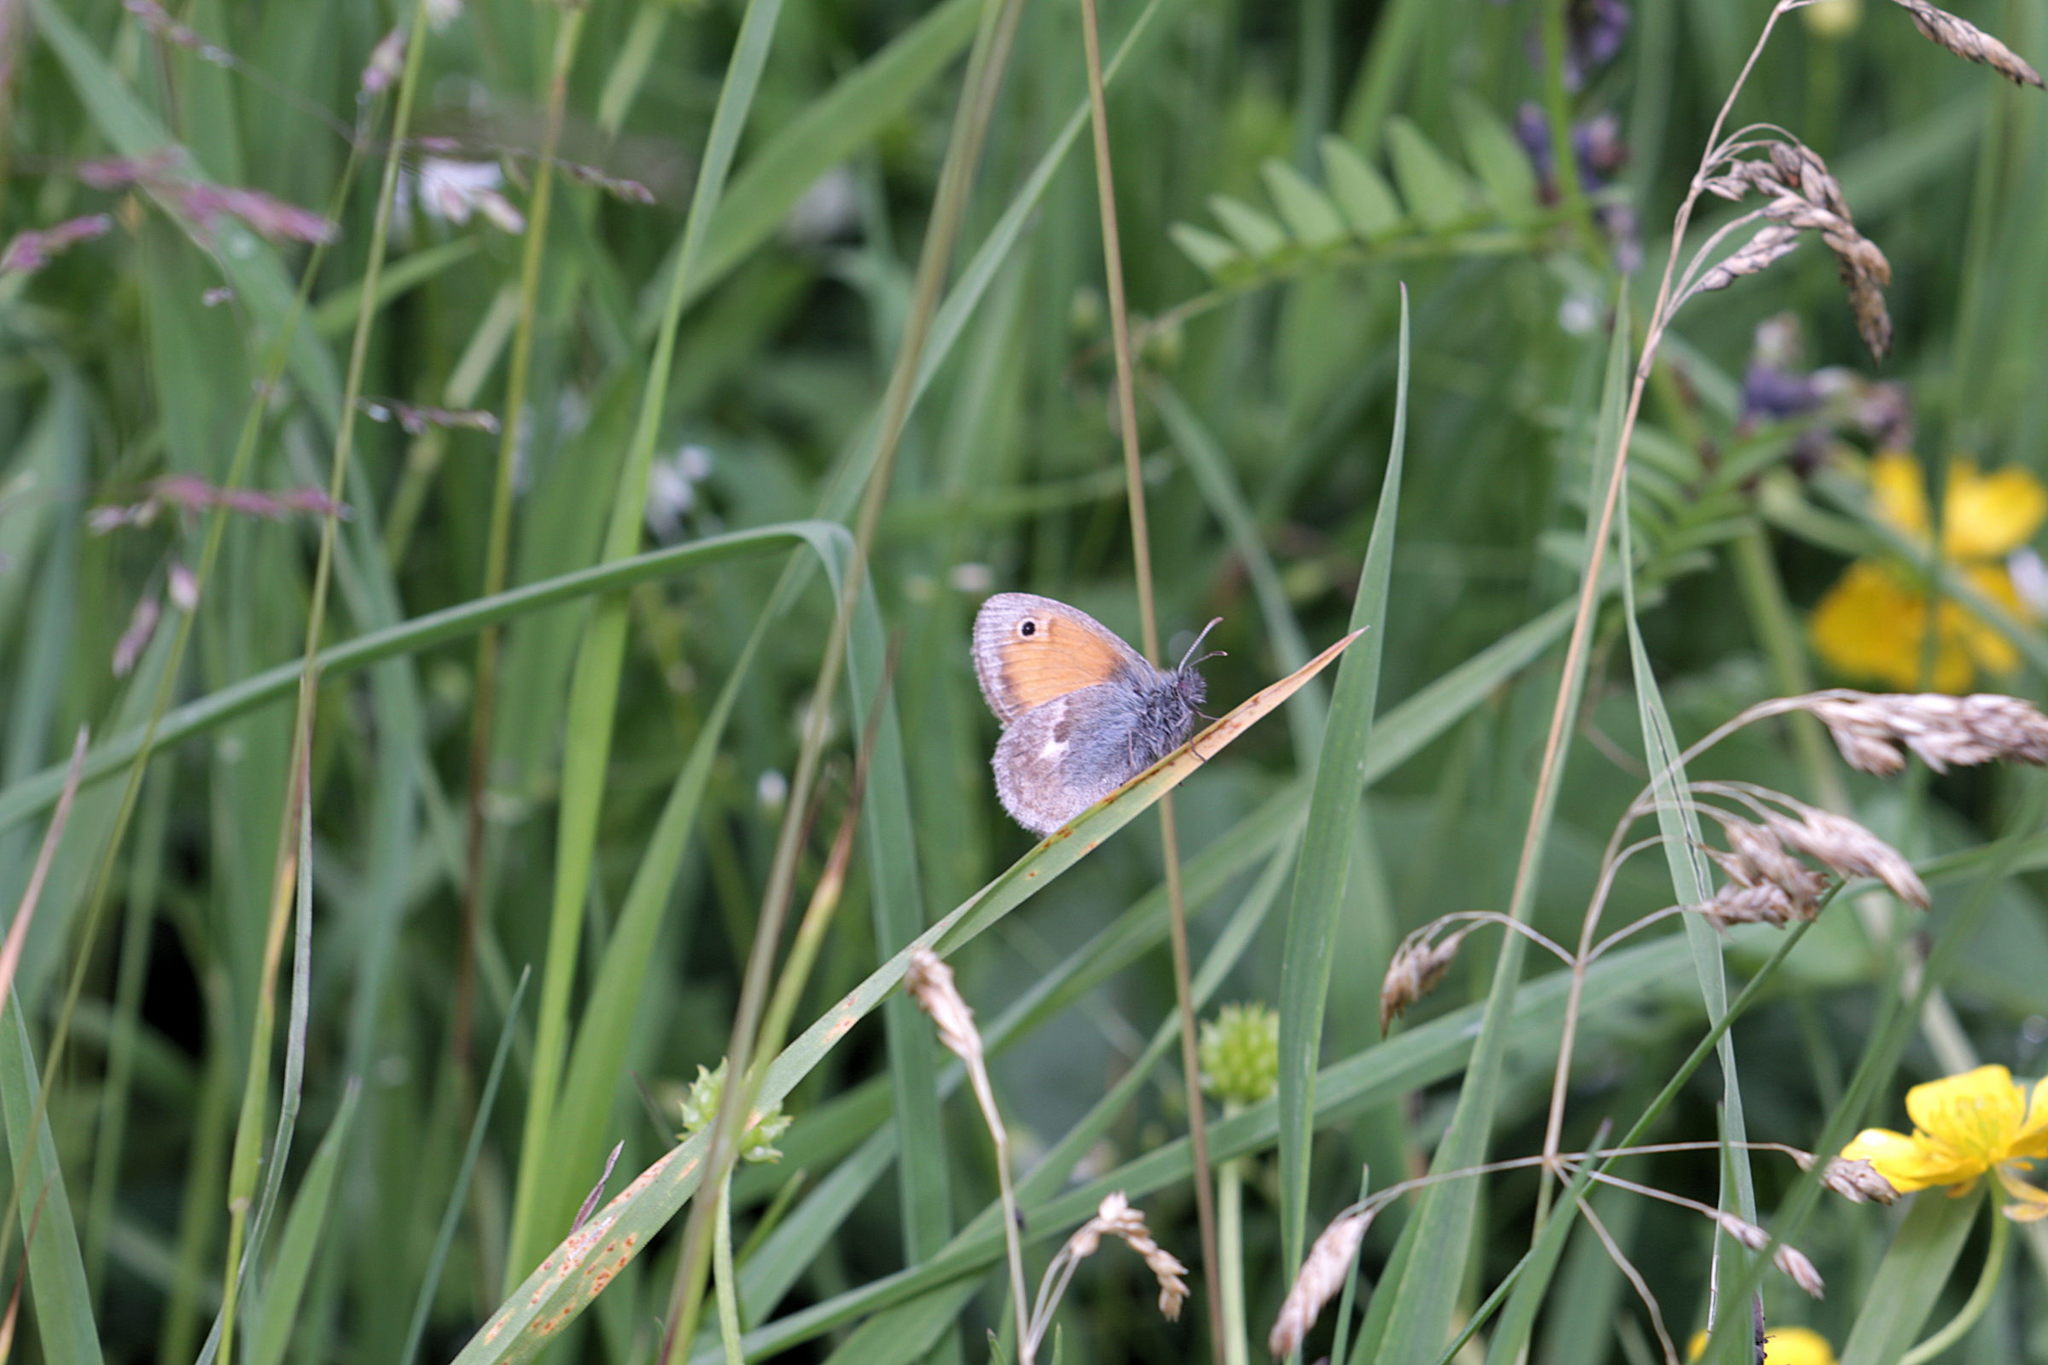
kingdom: Animalia
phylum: Arthropoda
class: Insecta
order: Lepidoptera
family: Nymphalidae
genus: Coenonympha
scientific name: Coenonympha pamphilus
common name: Small heath
